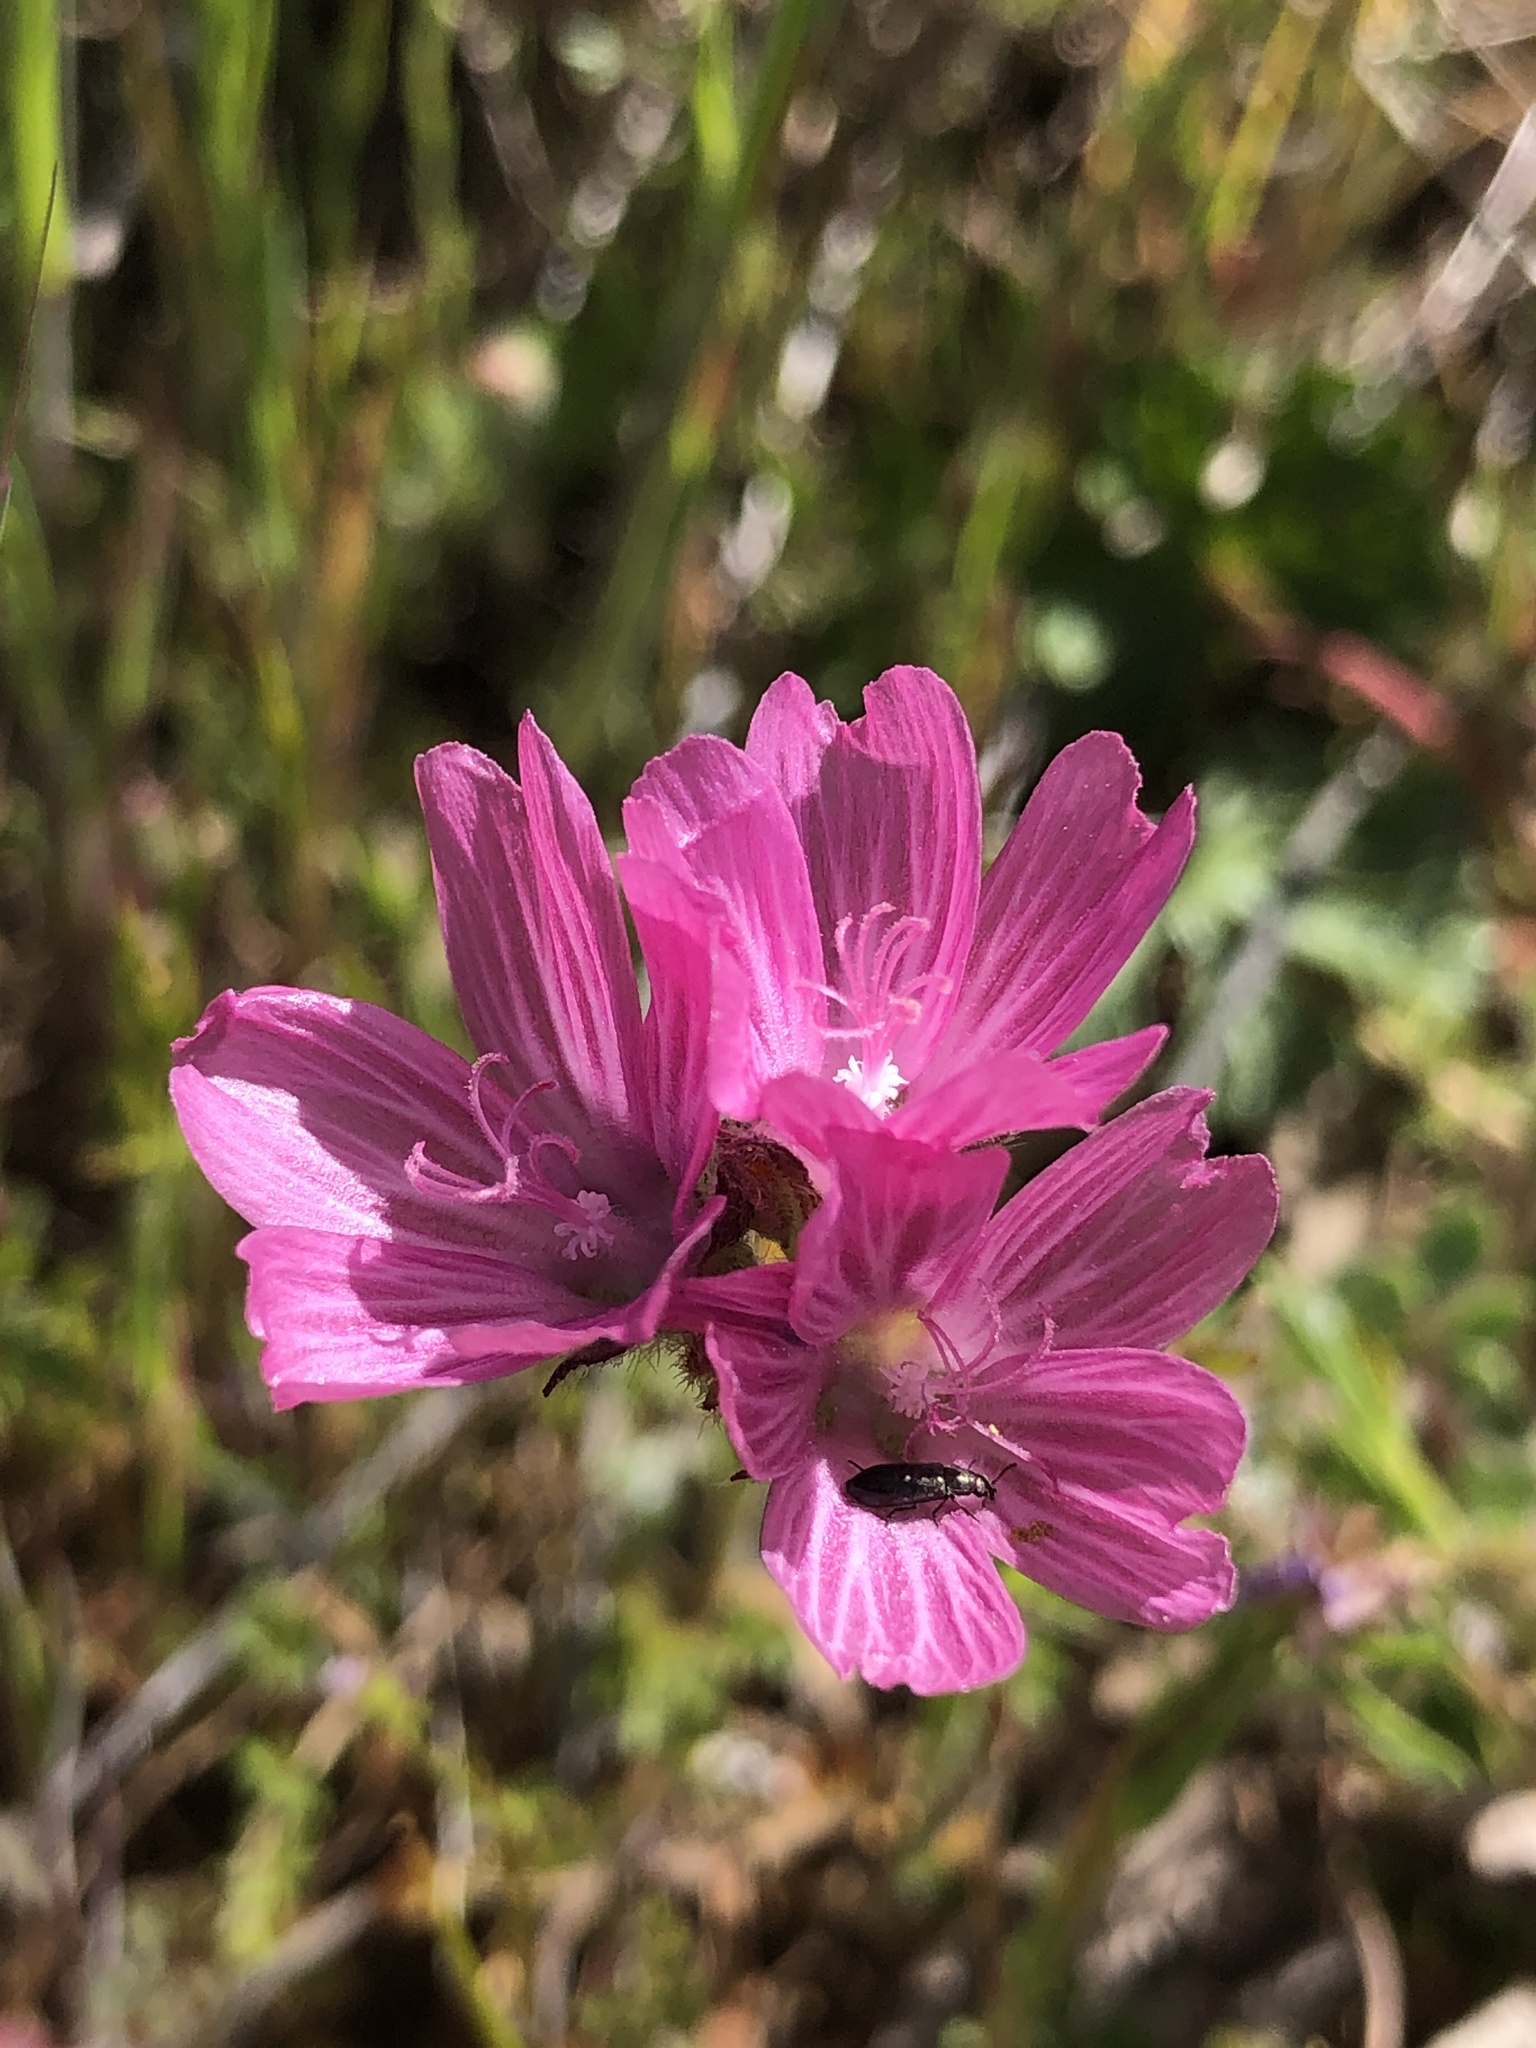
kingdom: Plantae
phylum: Tracheophyta
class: Magnoliopsida
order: Malvales
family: Malvaceae
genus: Sidalcea
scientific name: Sidalcea malviflora
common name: Greek mallow
